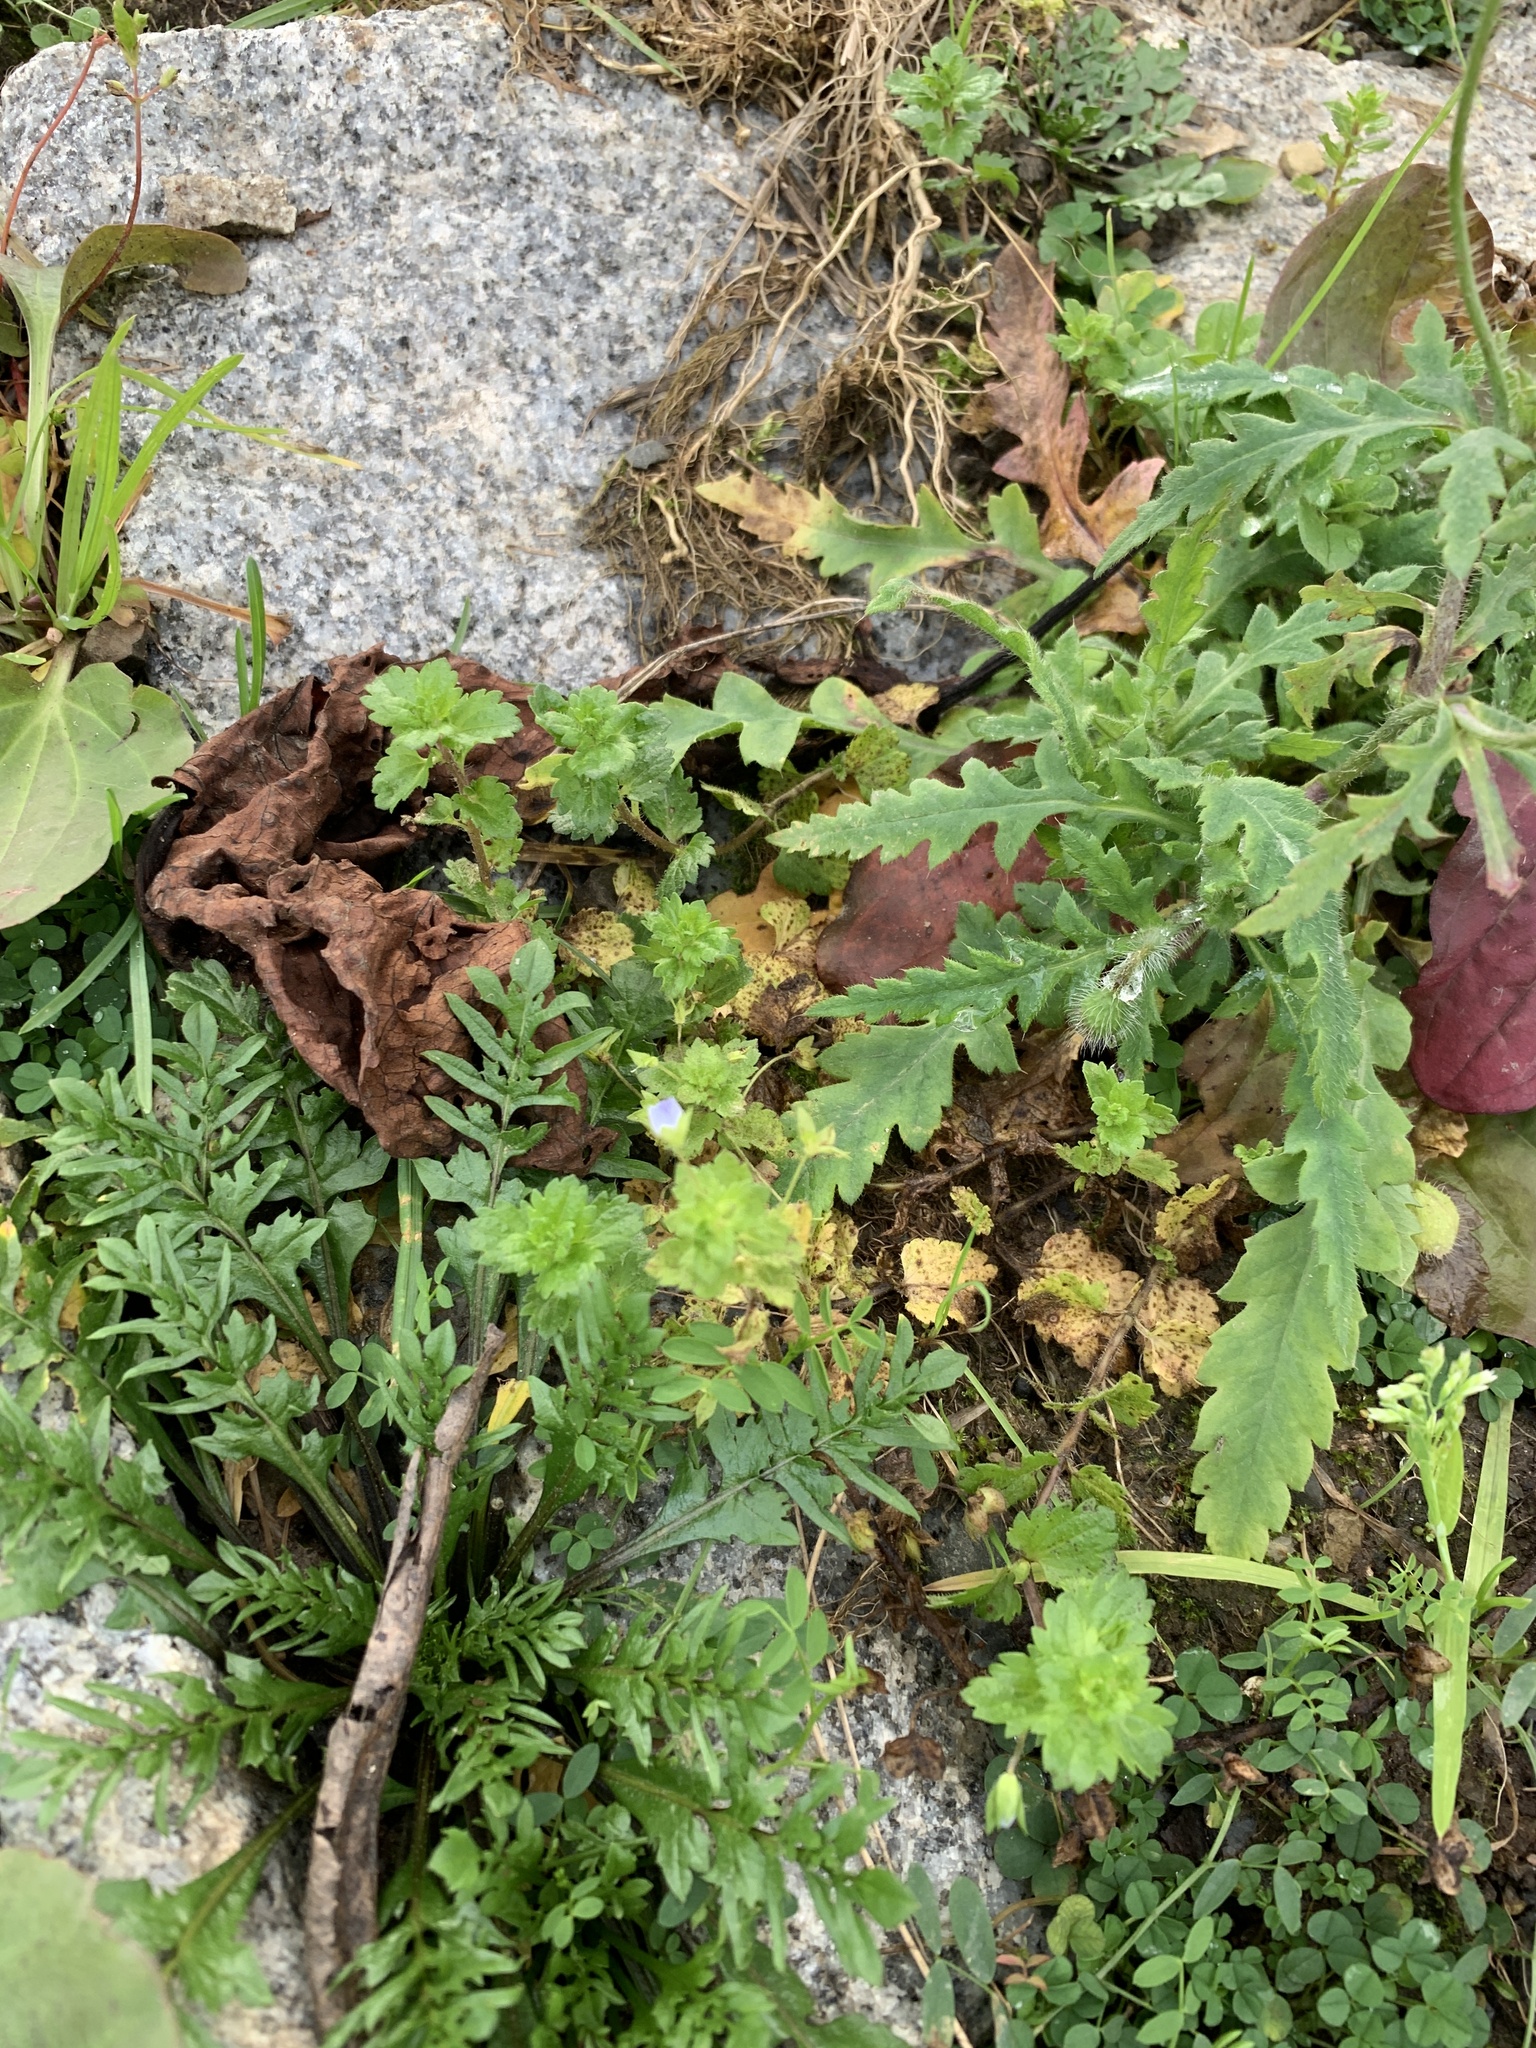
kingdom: Plantae
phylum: Tracheophyta
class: Magnoliopsida
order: Lamiales
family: Plantaginaceae
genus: Veronica
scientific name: Veronica persica
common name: Common field-speedwell
